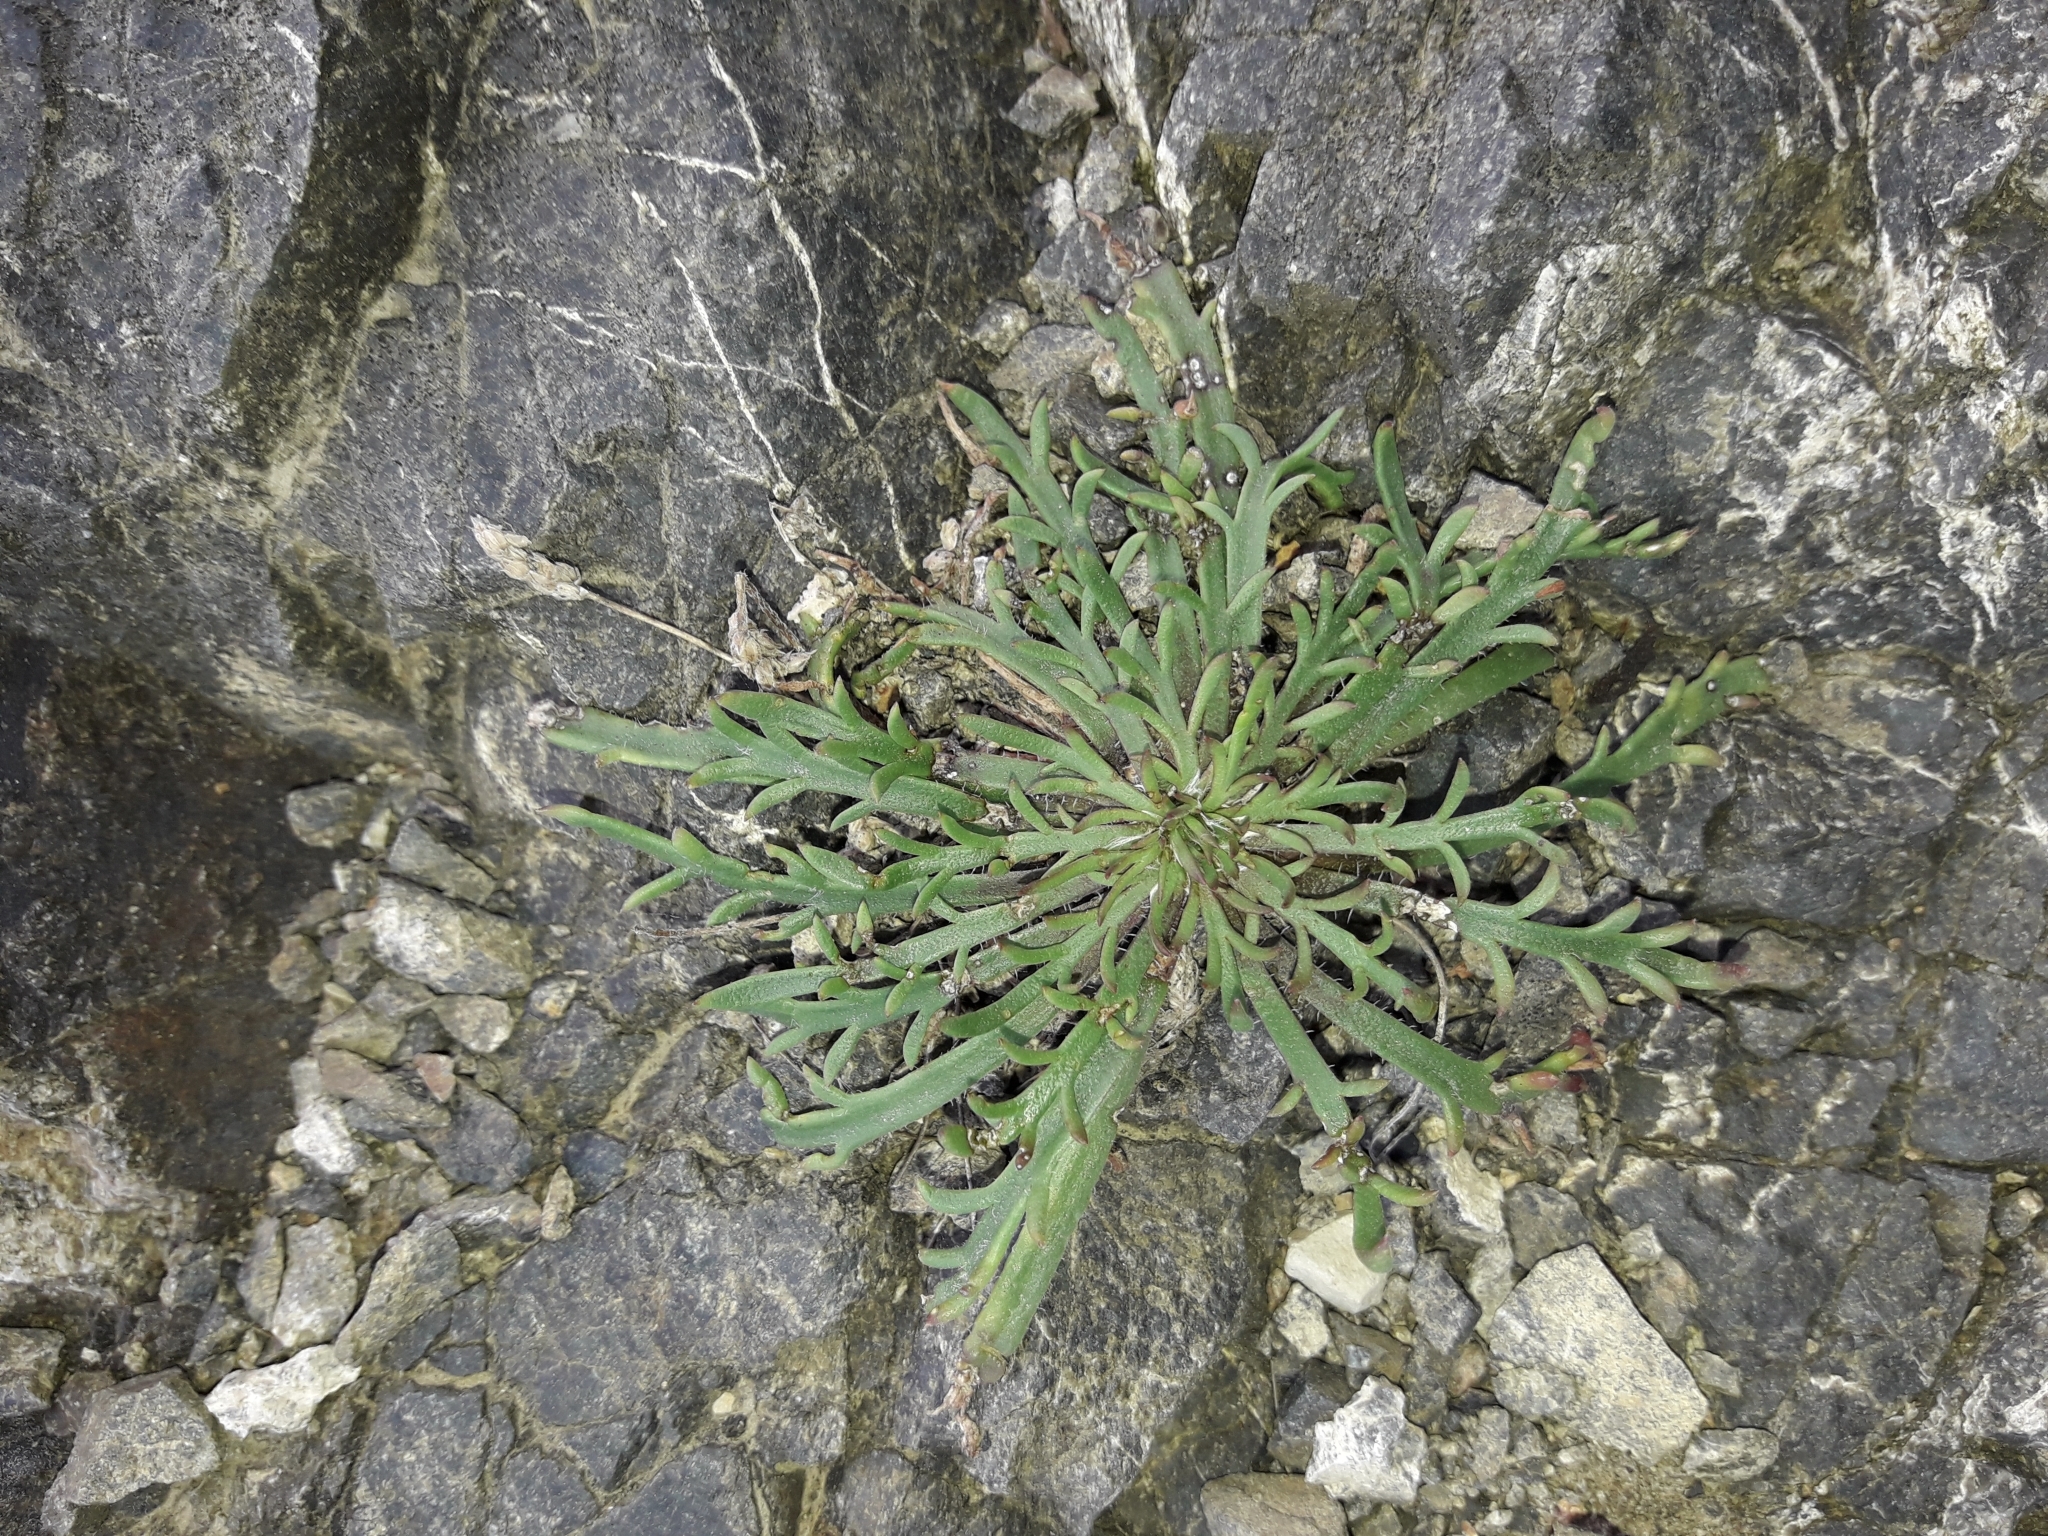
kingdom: Plantae
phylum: Tracheophyta
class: Magnoliopsida
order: Lamiales
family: Plantaginaceae
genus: Plantago
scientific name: Plantago coronopus
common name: Buck's-horn plantain
